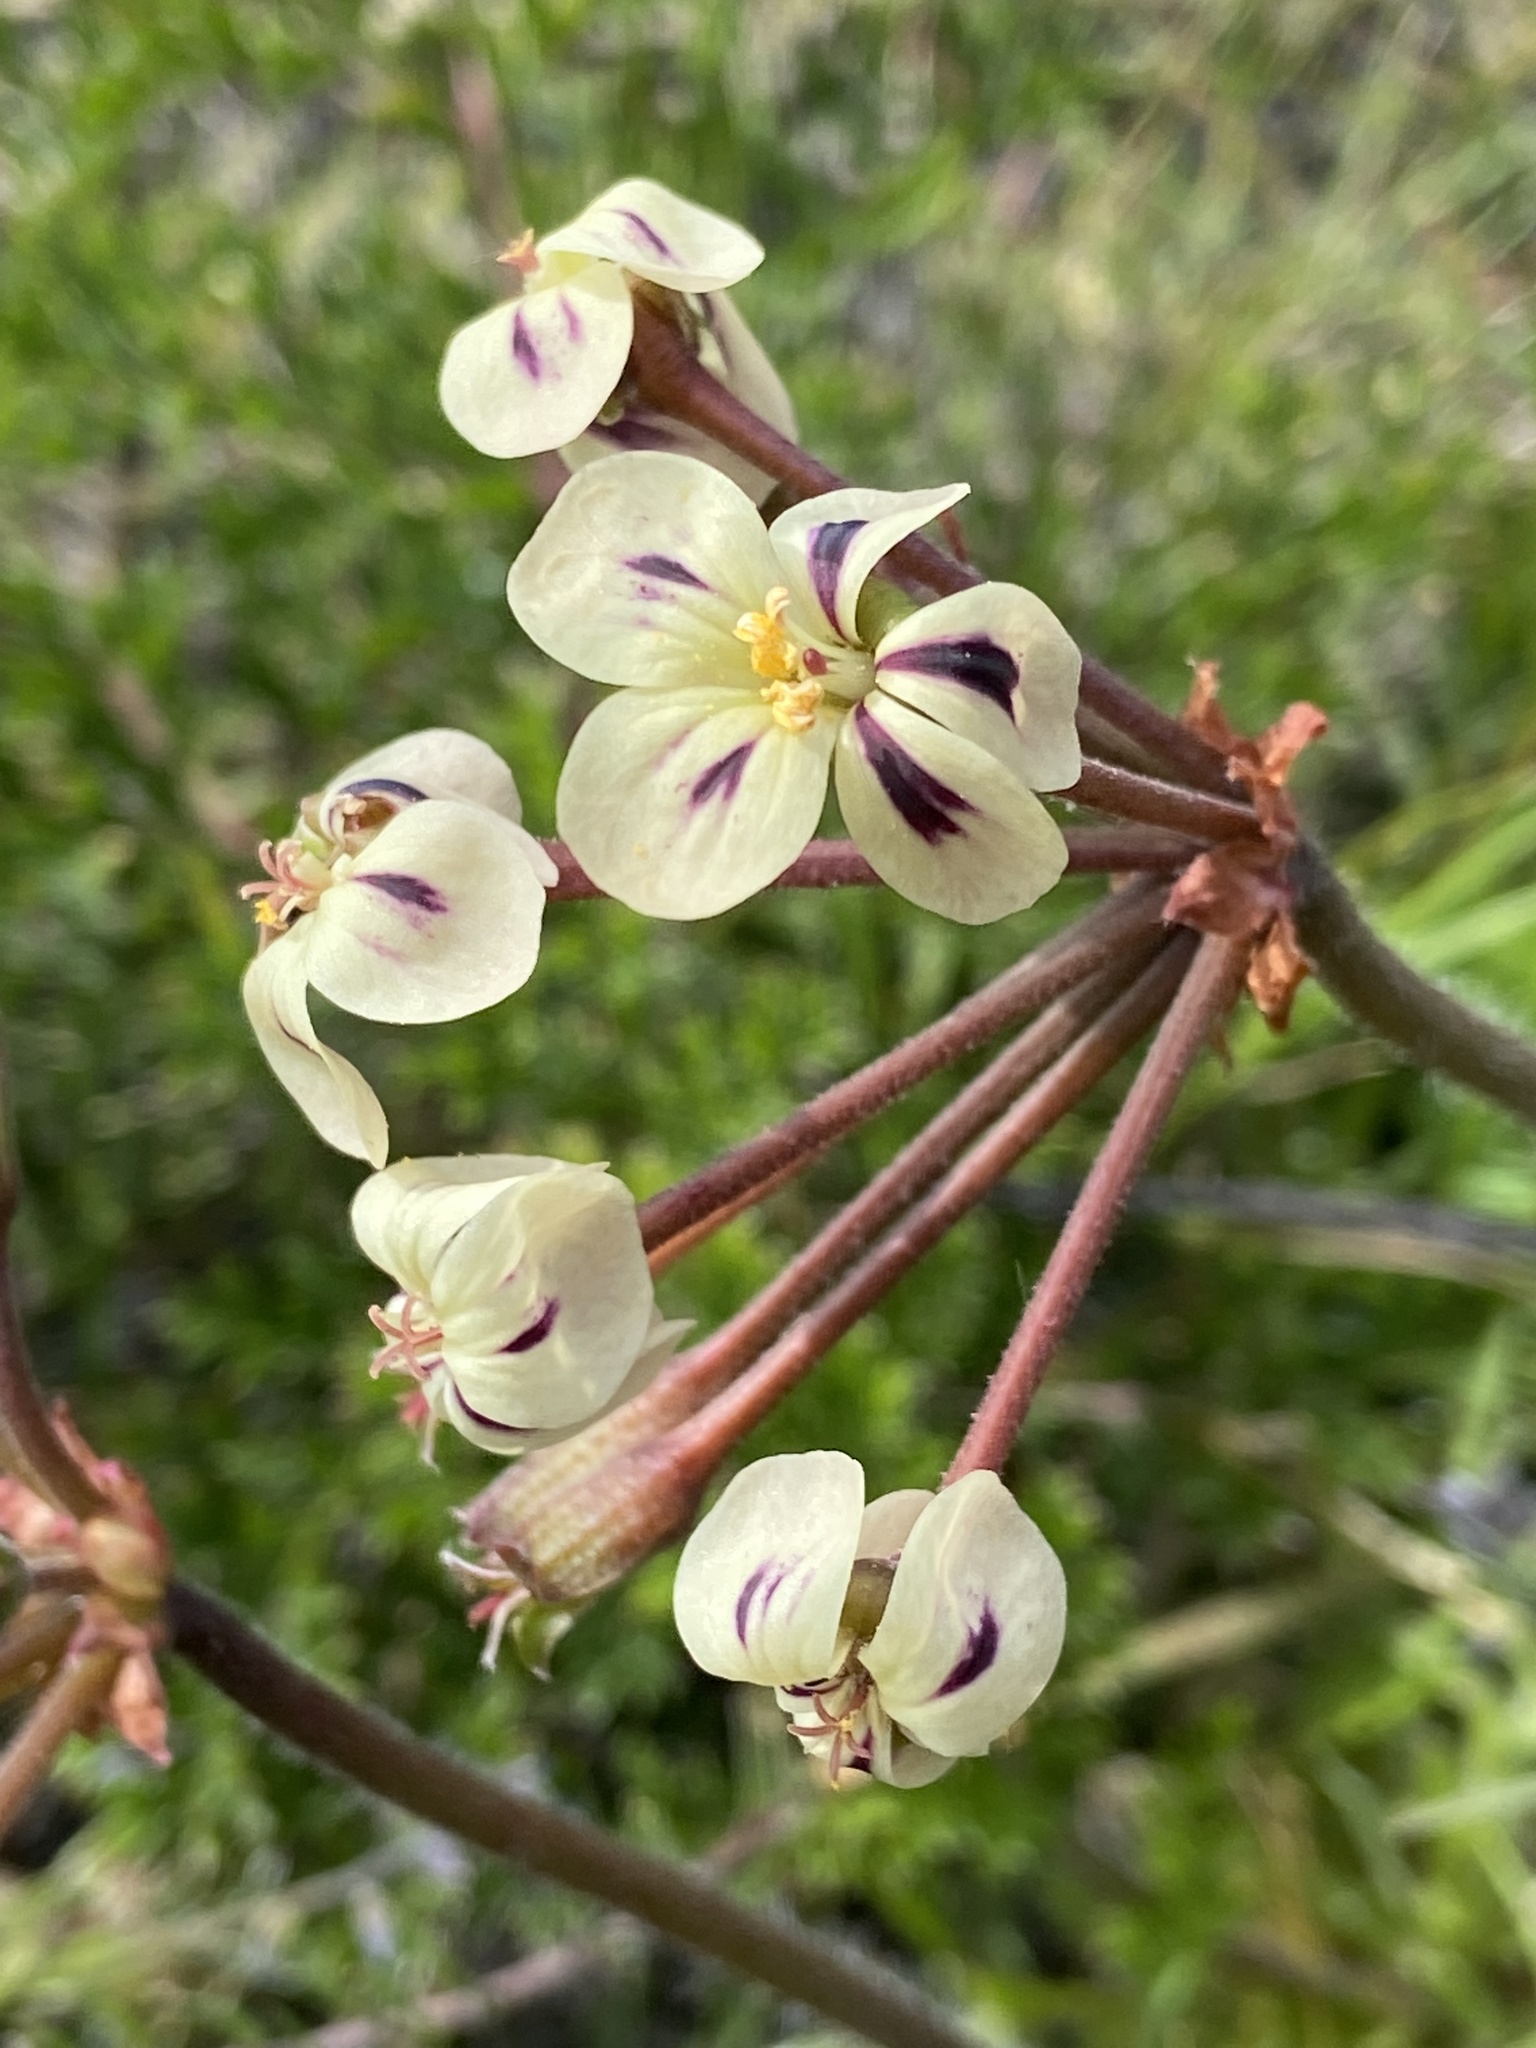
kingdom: Plantae
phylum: Tracheophyta
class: Magnoliopsida
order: Geraniales
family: Geraniaceae
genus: Pelargonium
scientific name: Pelargonium triste
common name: Night-scent pelargonium
